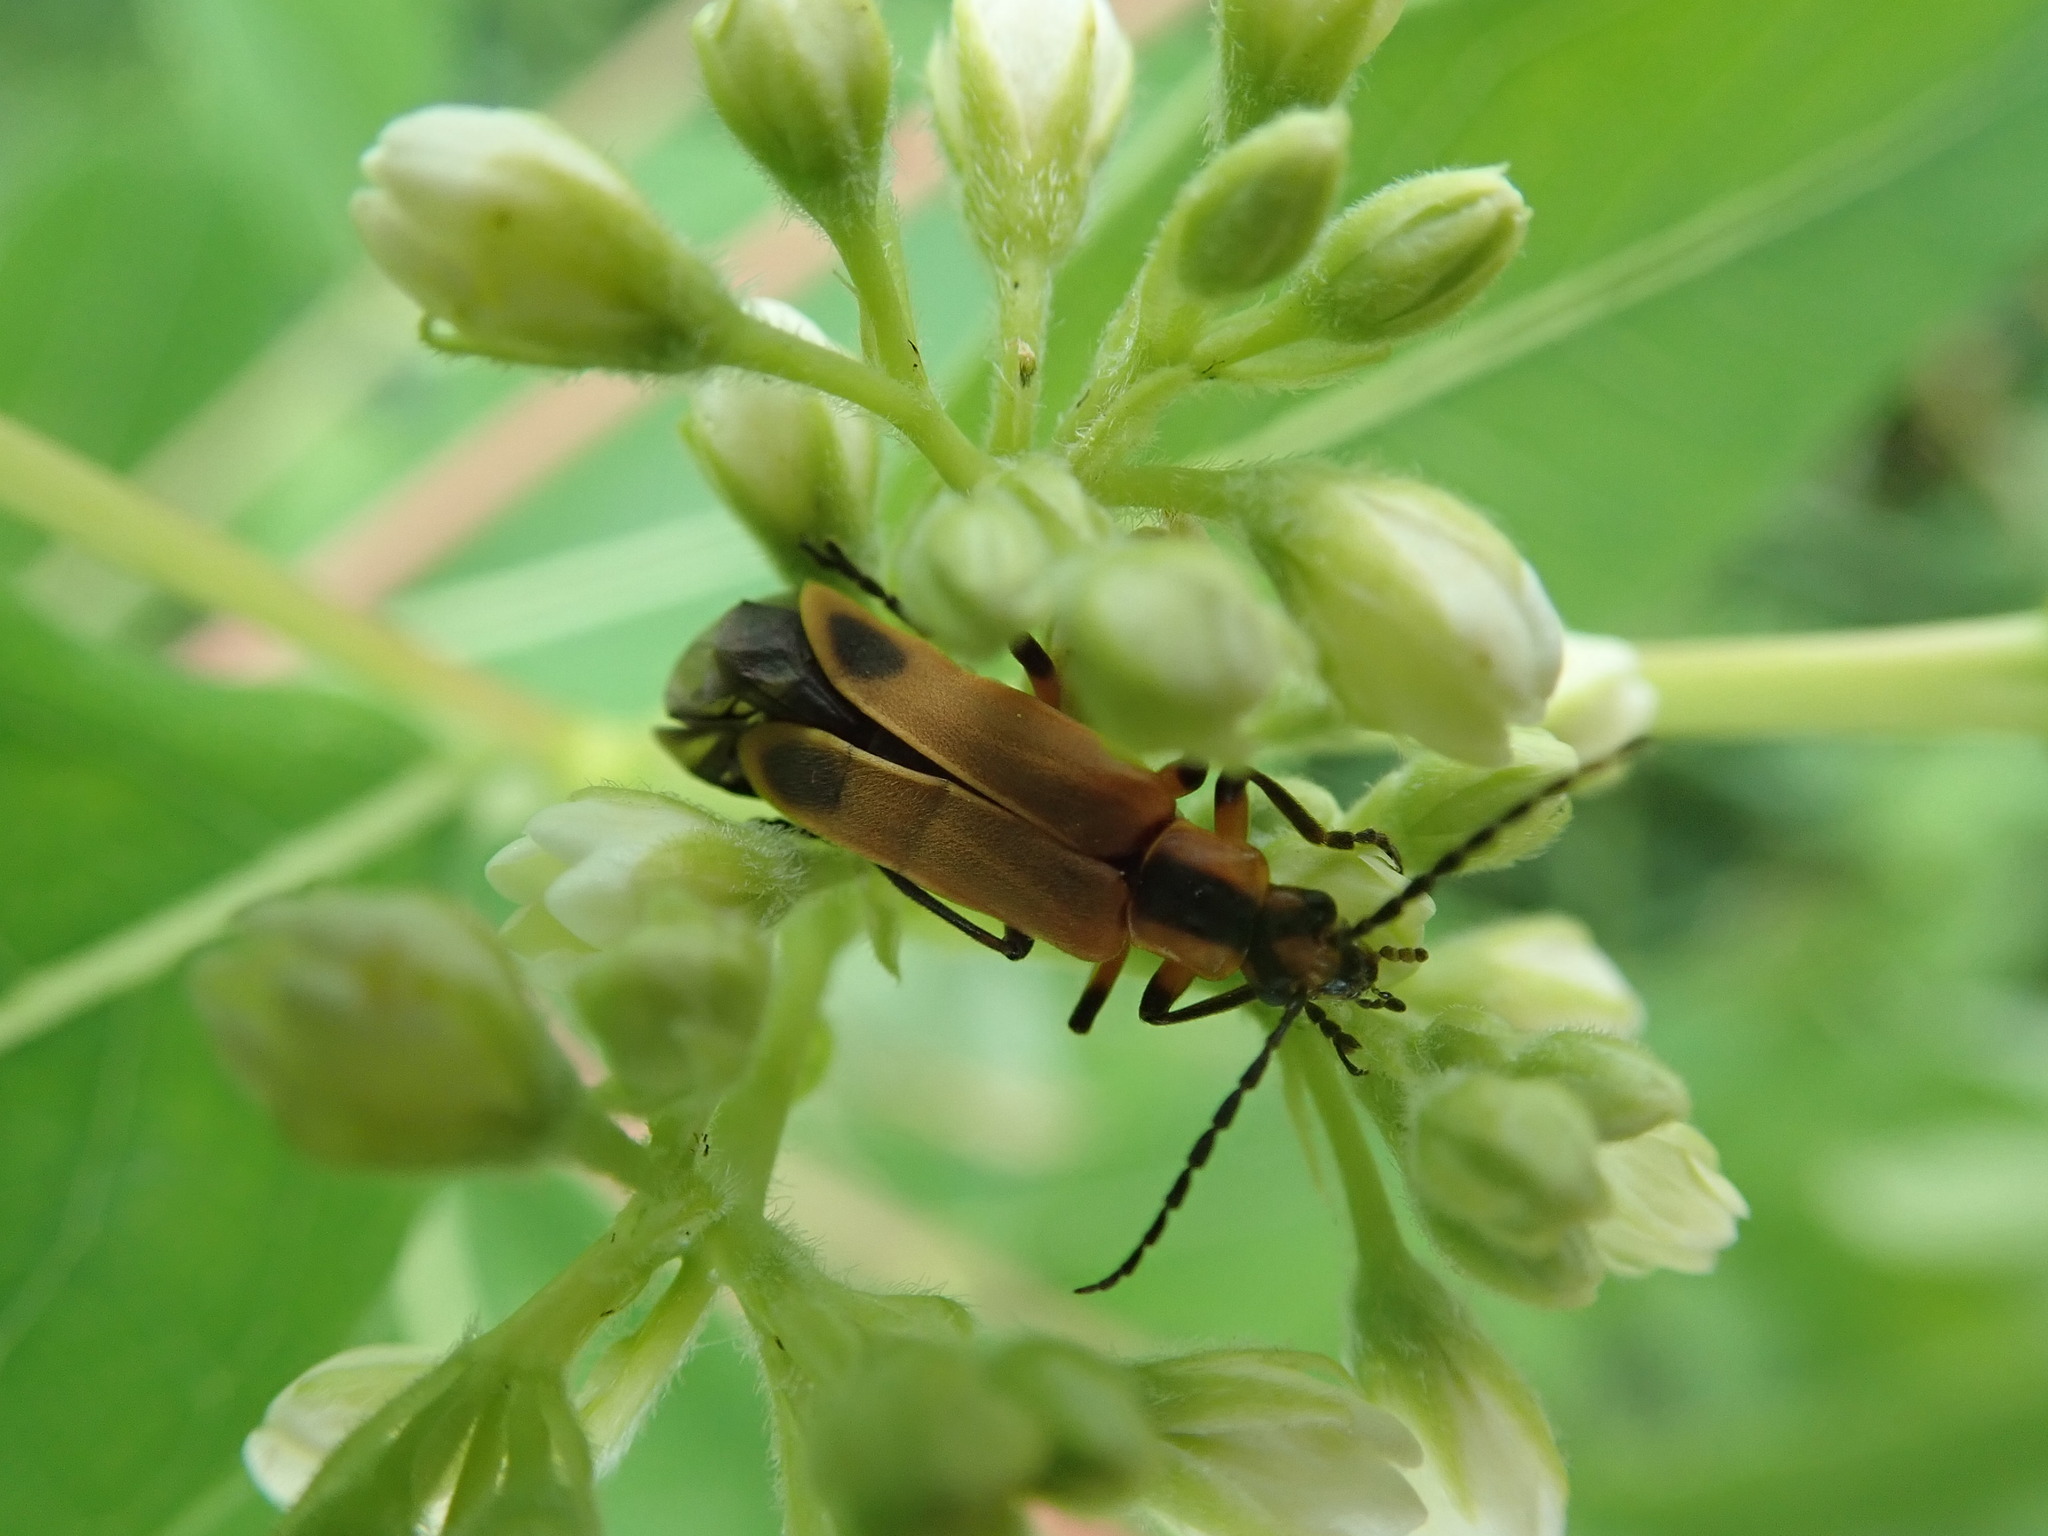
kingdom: Animalia
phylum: Arthropoda
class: Insecta
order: Coleoptera
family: Cantharidae
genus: Chauliognathus
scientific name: Chauliognathus marginatus
